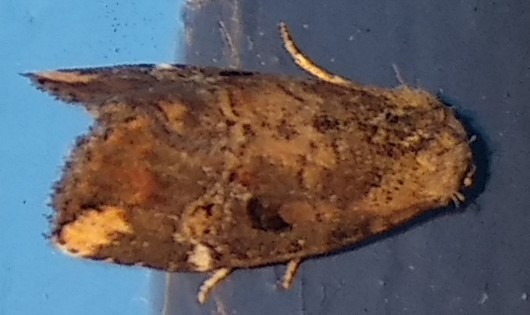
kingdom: Animalia
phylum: Arthropoda
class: Insecta
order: Lepidoptera
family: Noctuidae
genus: Elaphria
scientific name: Elaphria versicolor
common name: Fir harlequin
